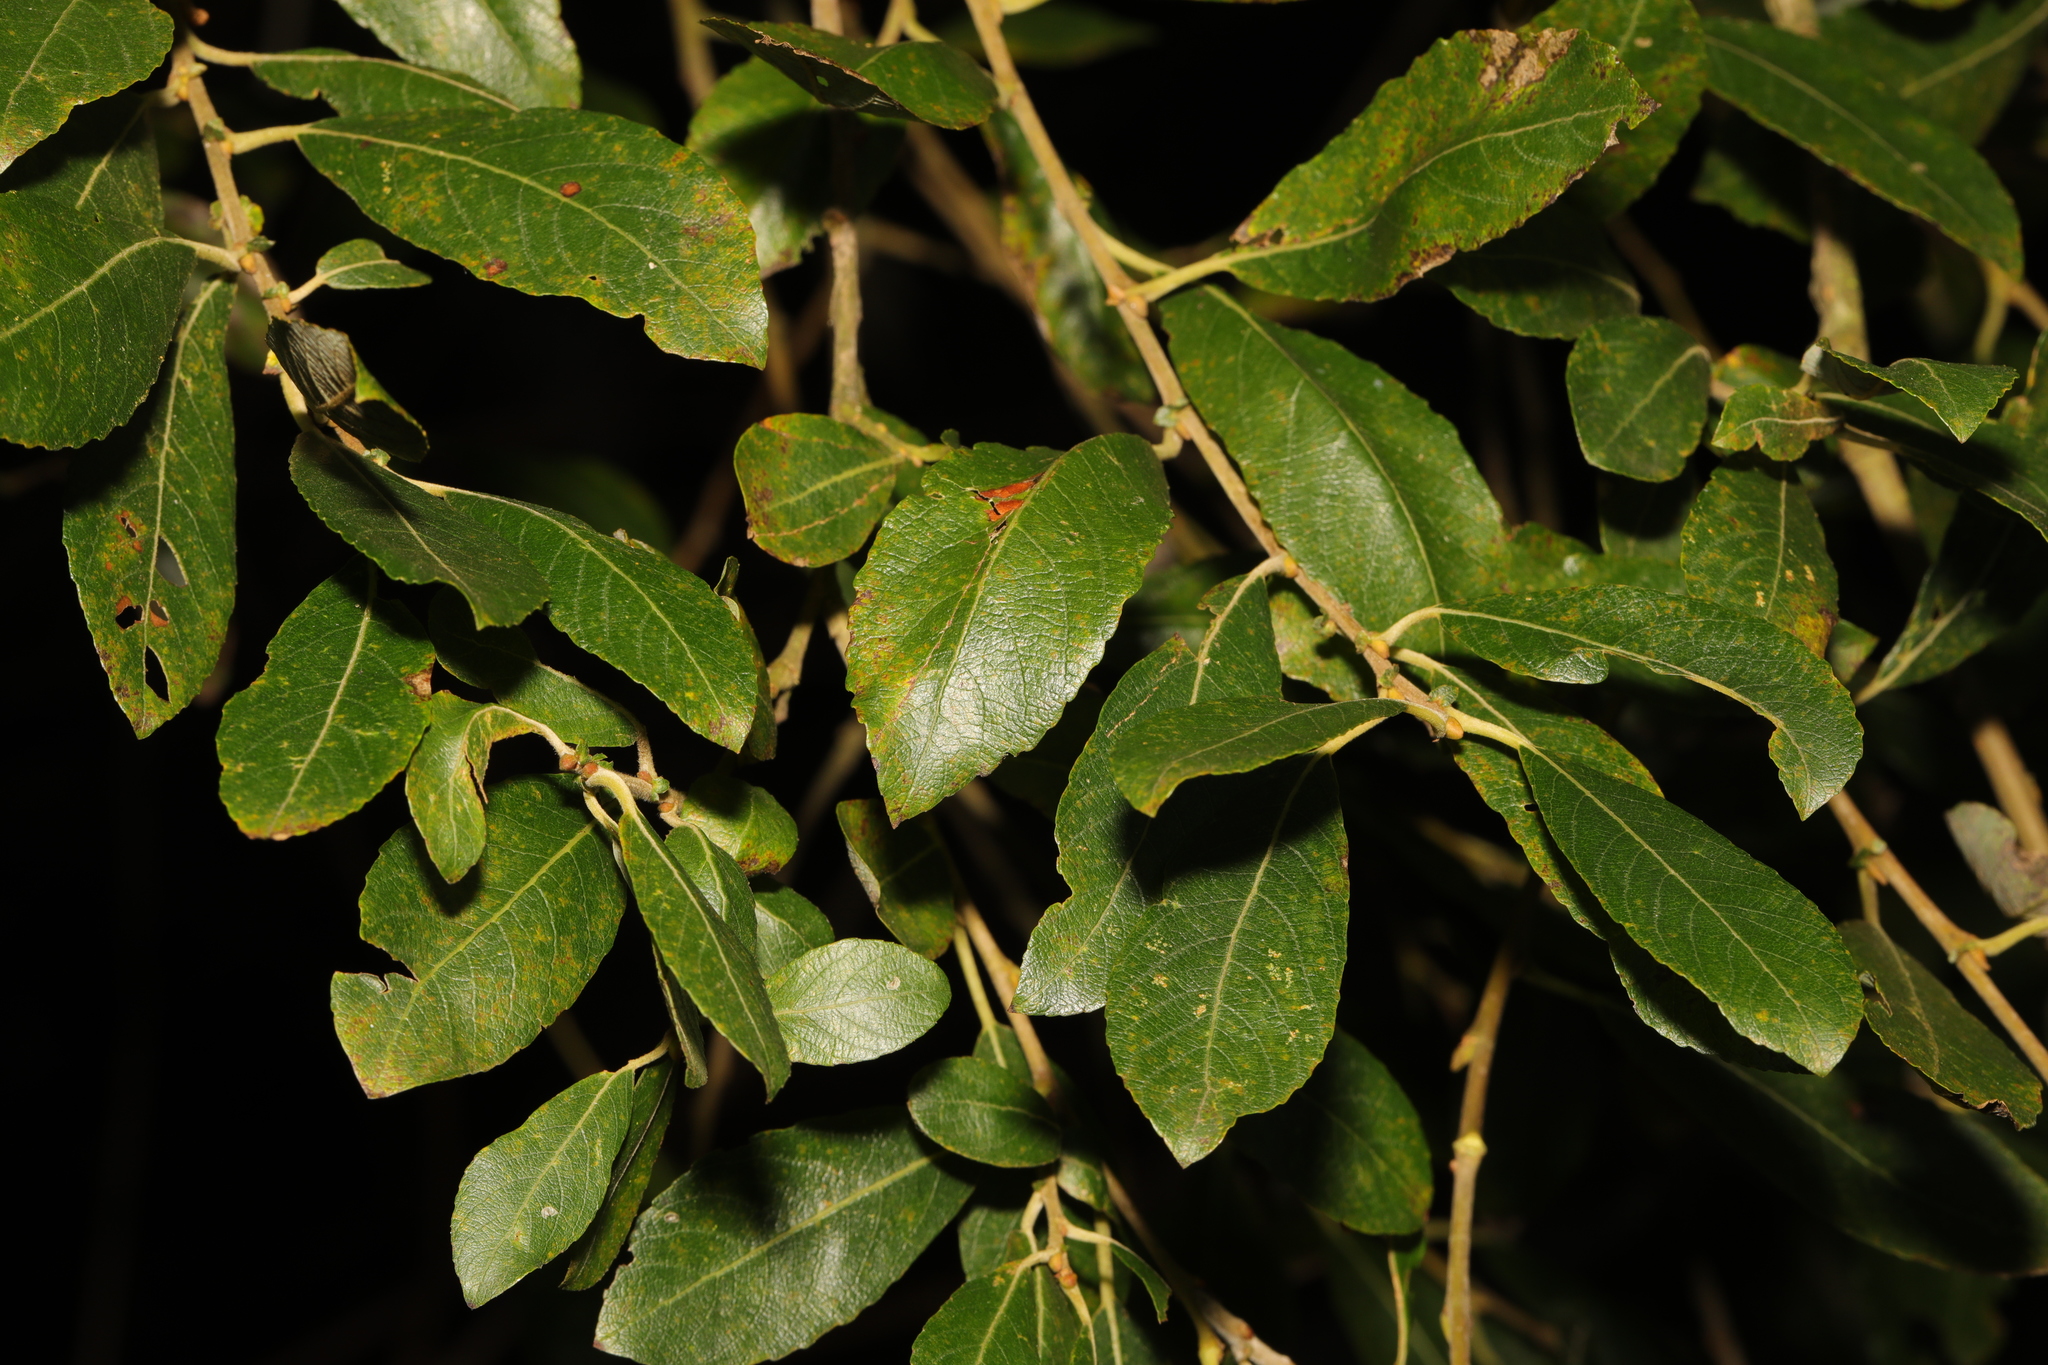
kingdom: Plantae
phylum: Tracheophyta
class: Magnoliopsida
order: Malpighiales
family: Salicaceae
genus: Salix
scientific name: Salix cinerea
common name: Common sallow
